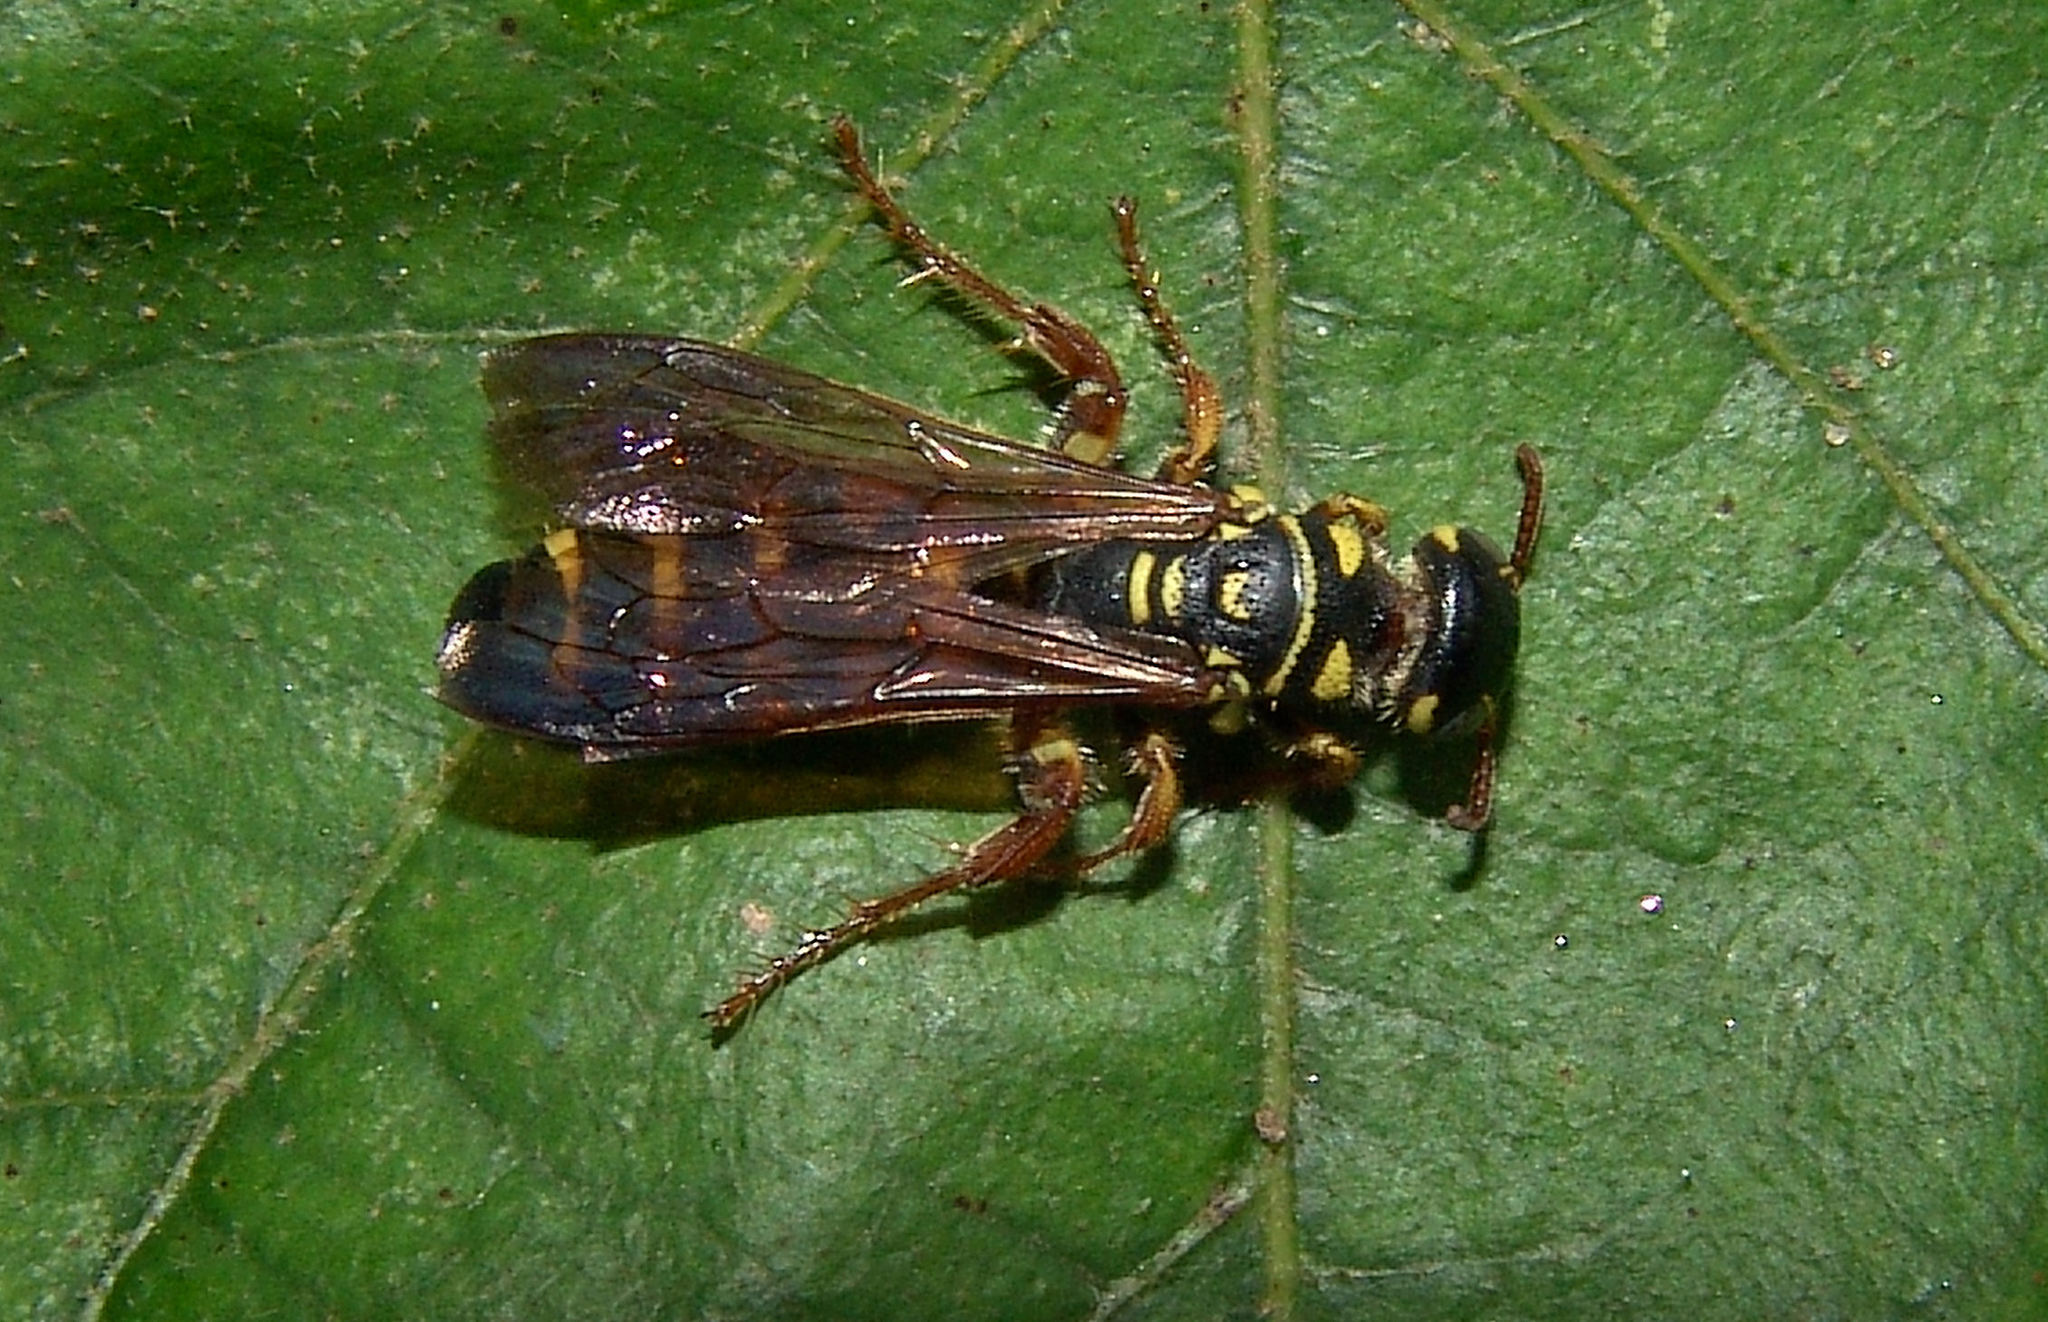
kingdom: Animalia
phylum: Arthropoda
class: Insecta
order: Hymenoptera
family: Tiphiidae
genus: Myzinum
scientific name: Myzinum quinquecinctum
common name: Five-banded thynnid wasp
